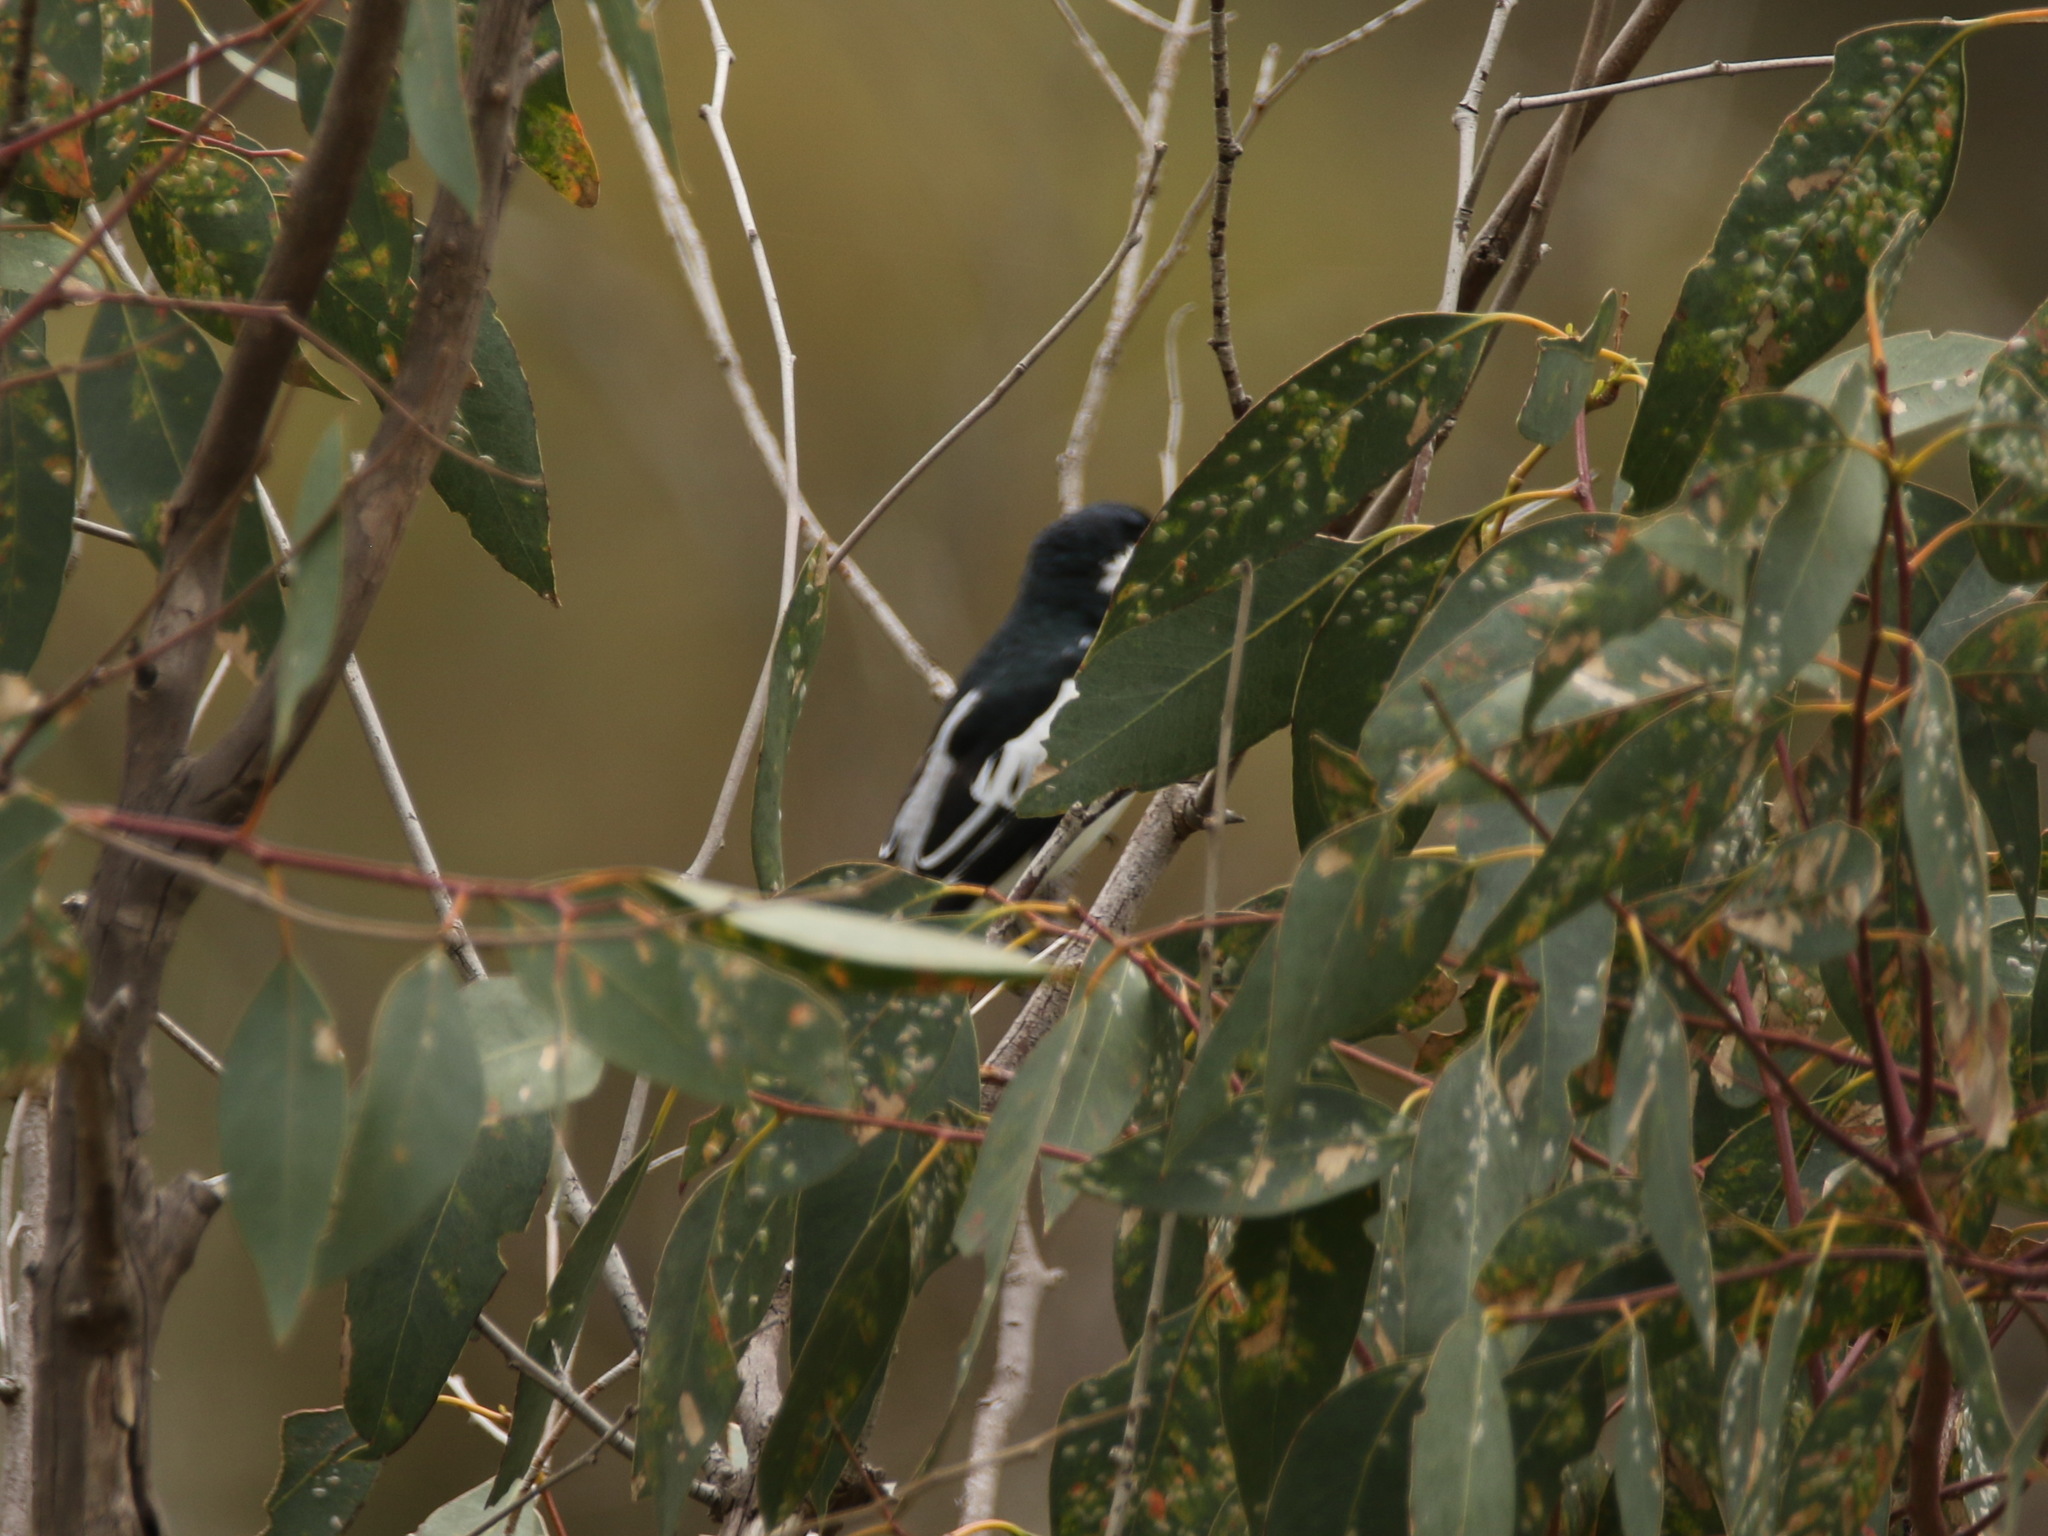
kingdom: Animalia
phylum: Chordata
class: Aves
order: Passeriformes
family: Campephagidae
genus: Lalage
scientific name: Lalage tricolor
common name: White-winged triller
